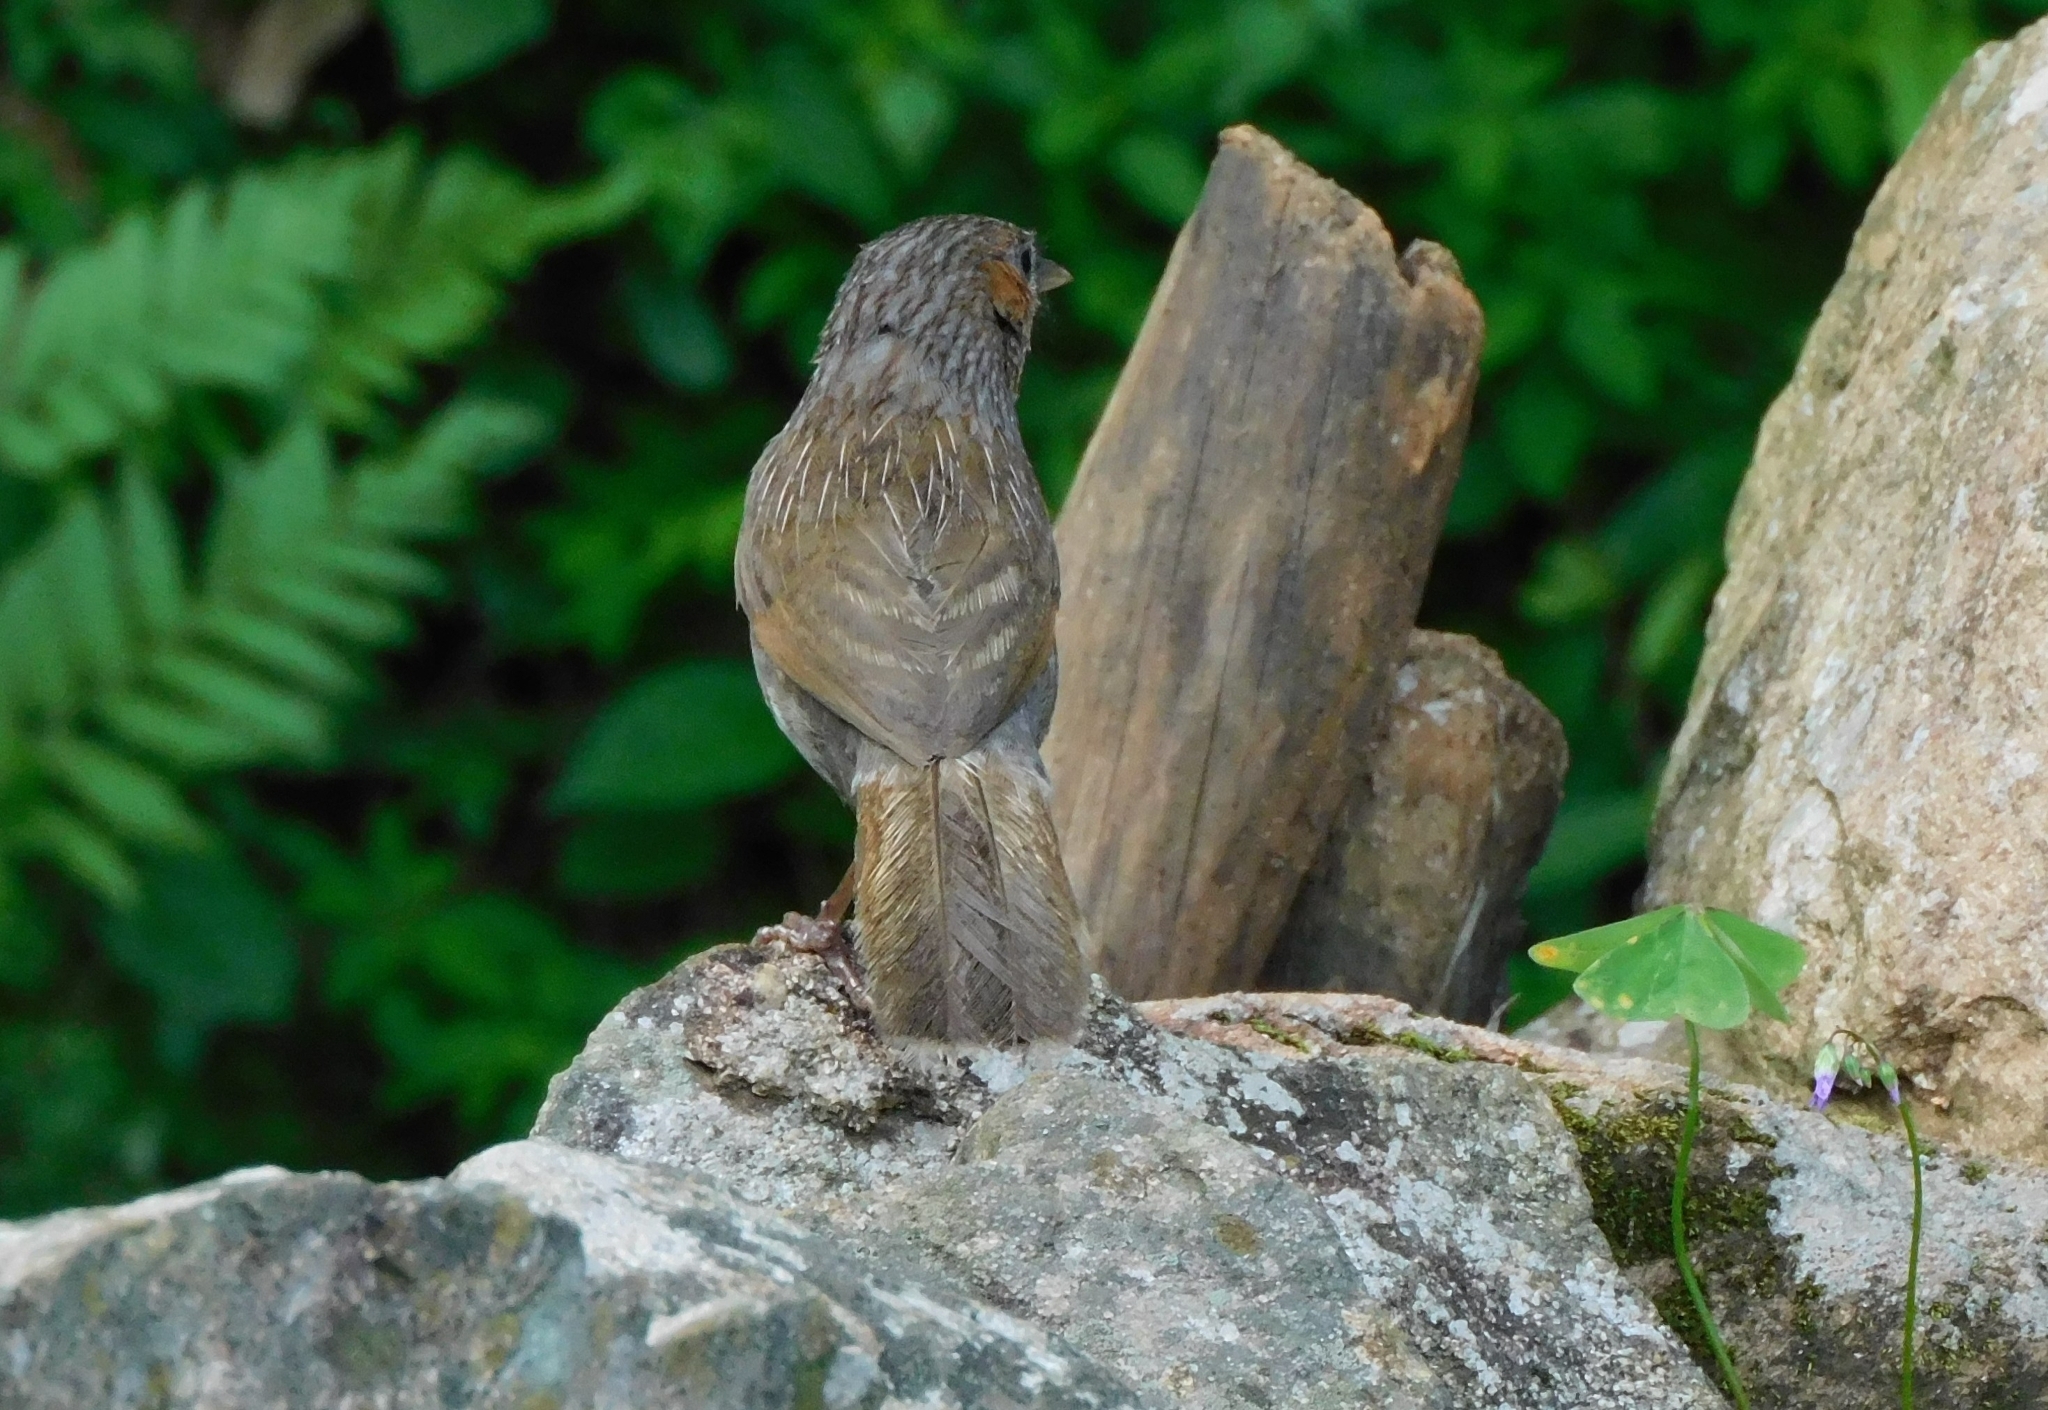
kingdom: Animalia
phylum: Chordata
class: Aves
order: Passeriformes
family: Leiothrichidae
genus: Trochalopteron
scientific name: Trochalopteron lineatum
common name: Streaked laughingthrush
